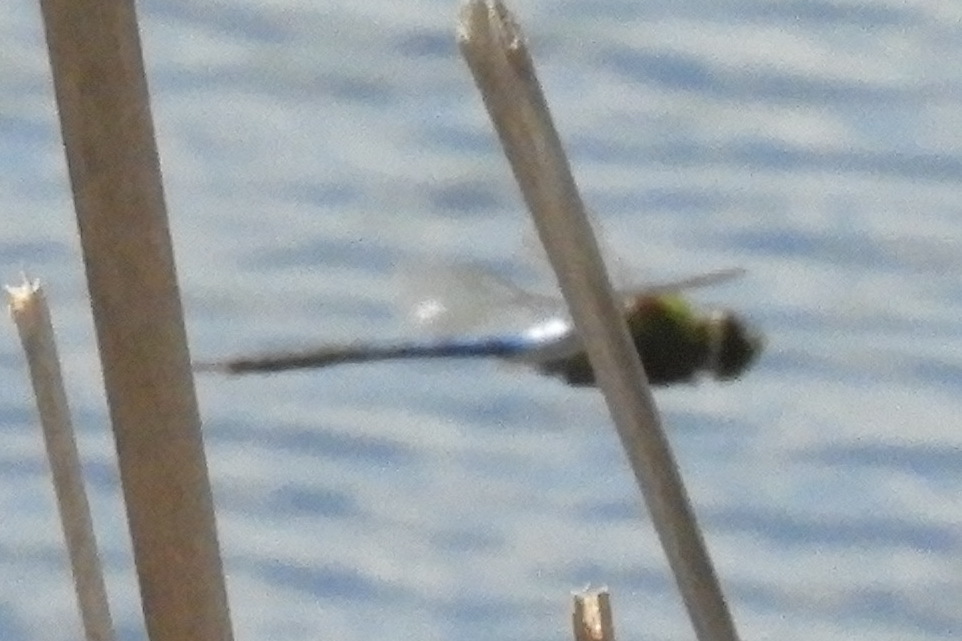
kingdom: Animalia
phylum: Arthropoda
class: Insecta
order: Odonata
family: Aeshnidae
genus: Anax
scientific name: Anax junius
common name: Common green darner
